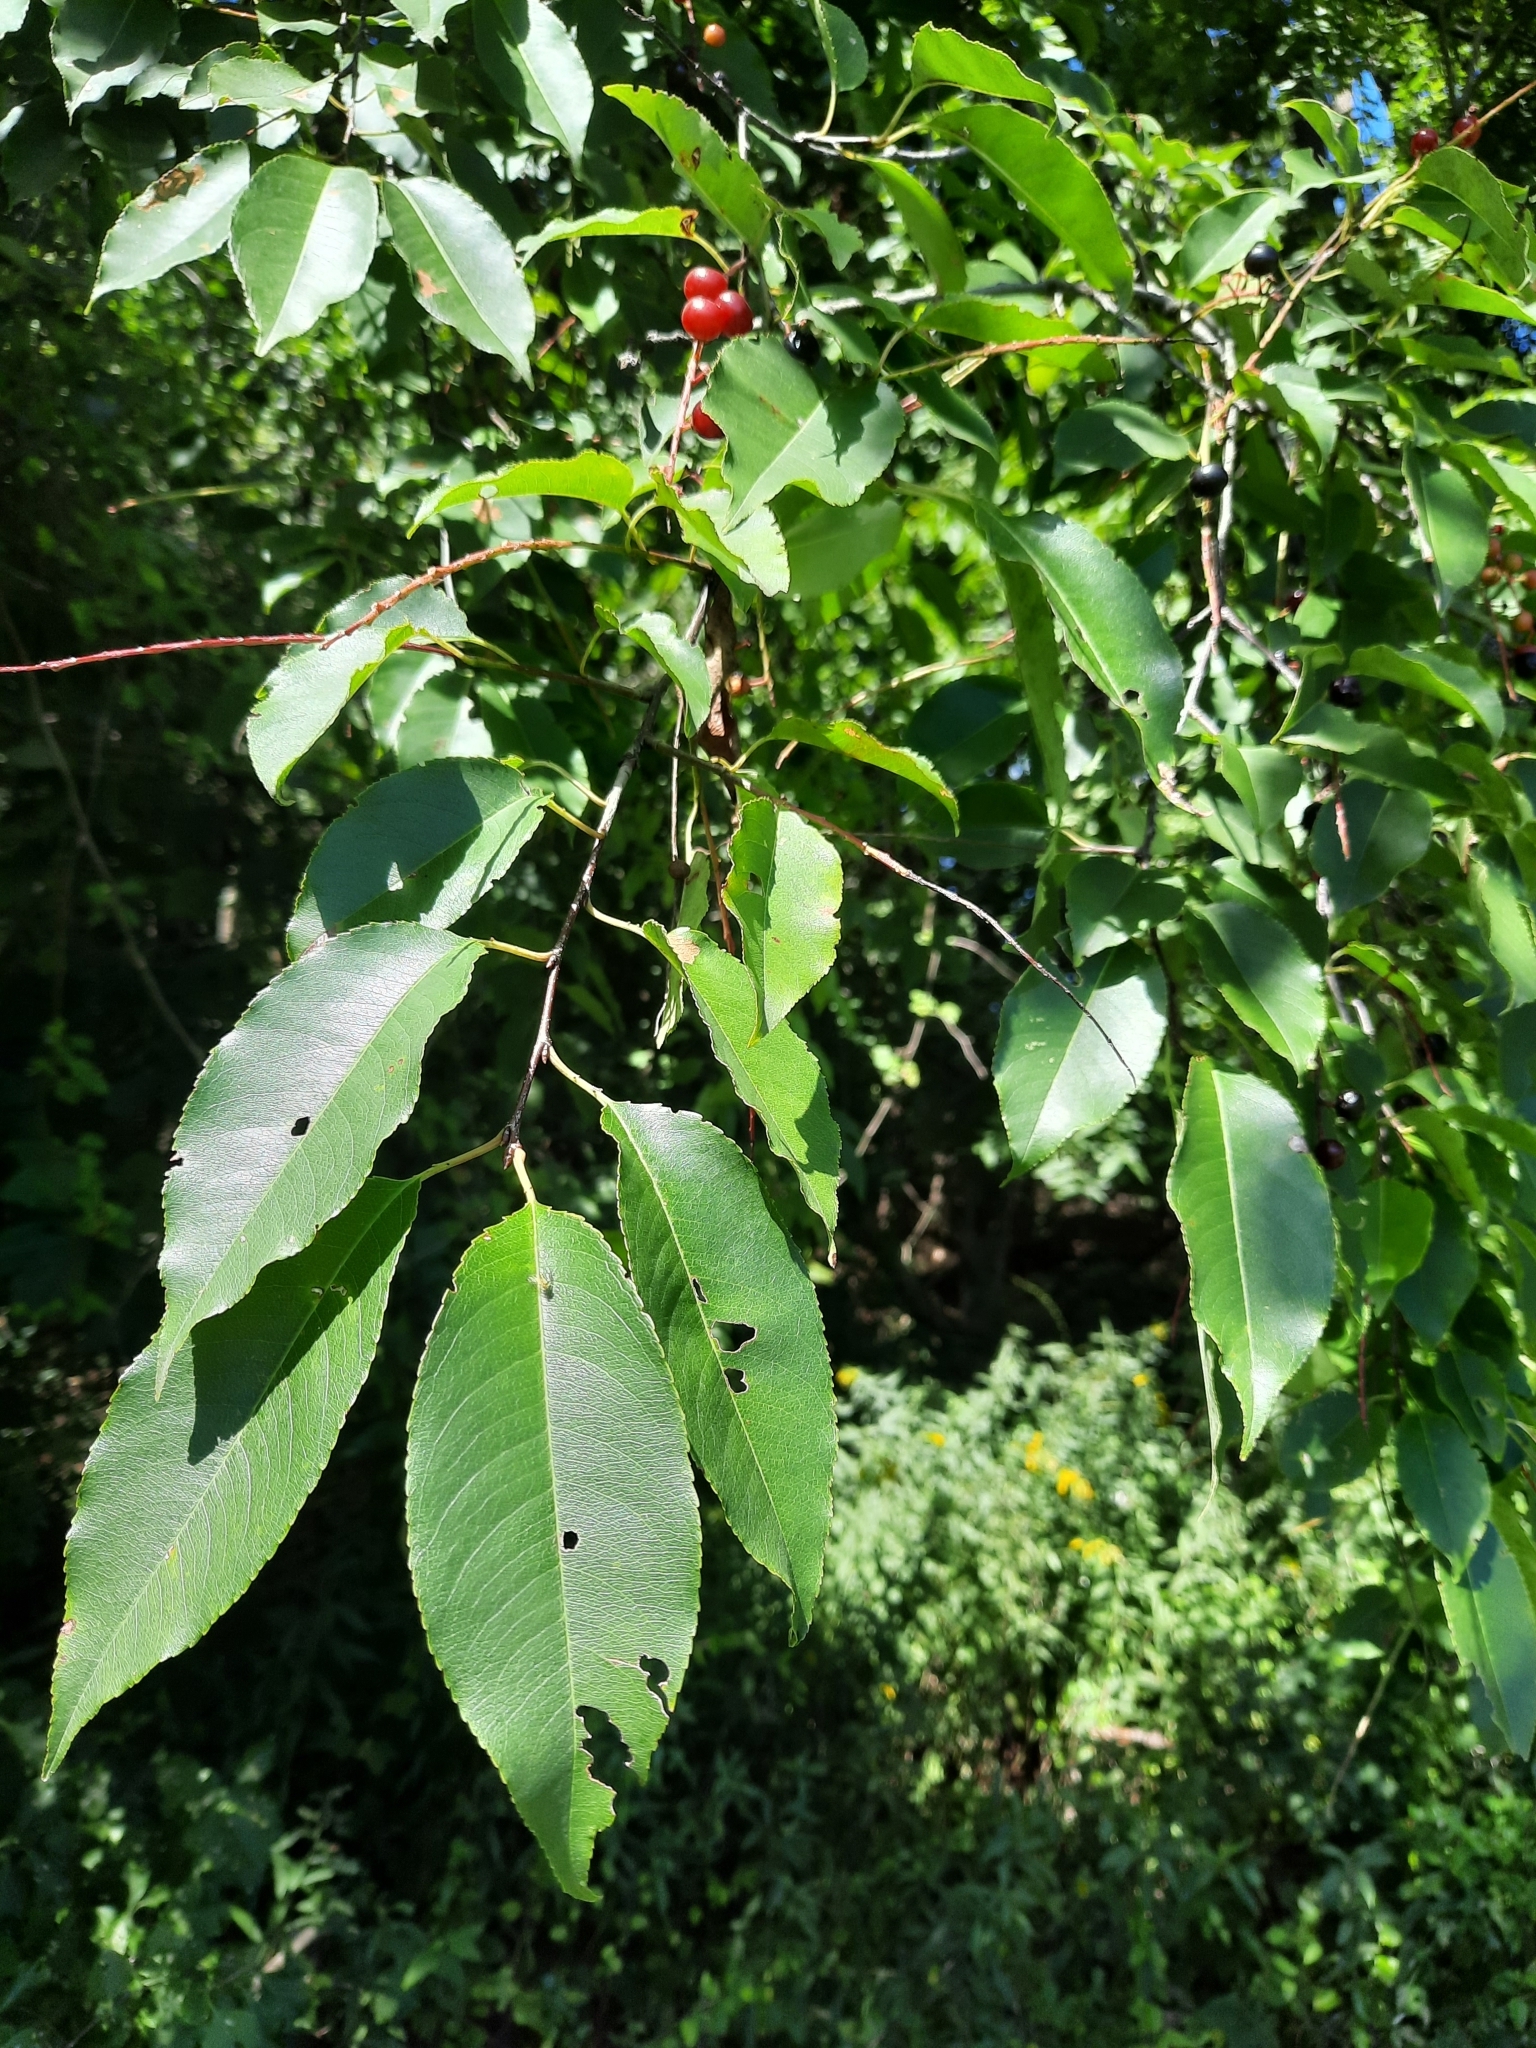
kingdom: Plantae
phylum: Tracheophyta
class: Magnoliopsida
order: Rosales
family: Rosaceae
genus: Prunus
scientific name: Prunus serotina
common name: Black cherry
